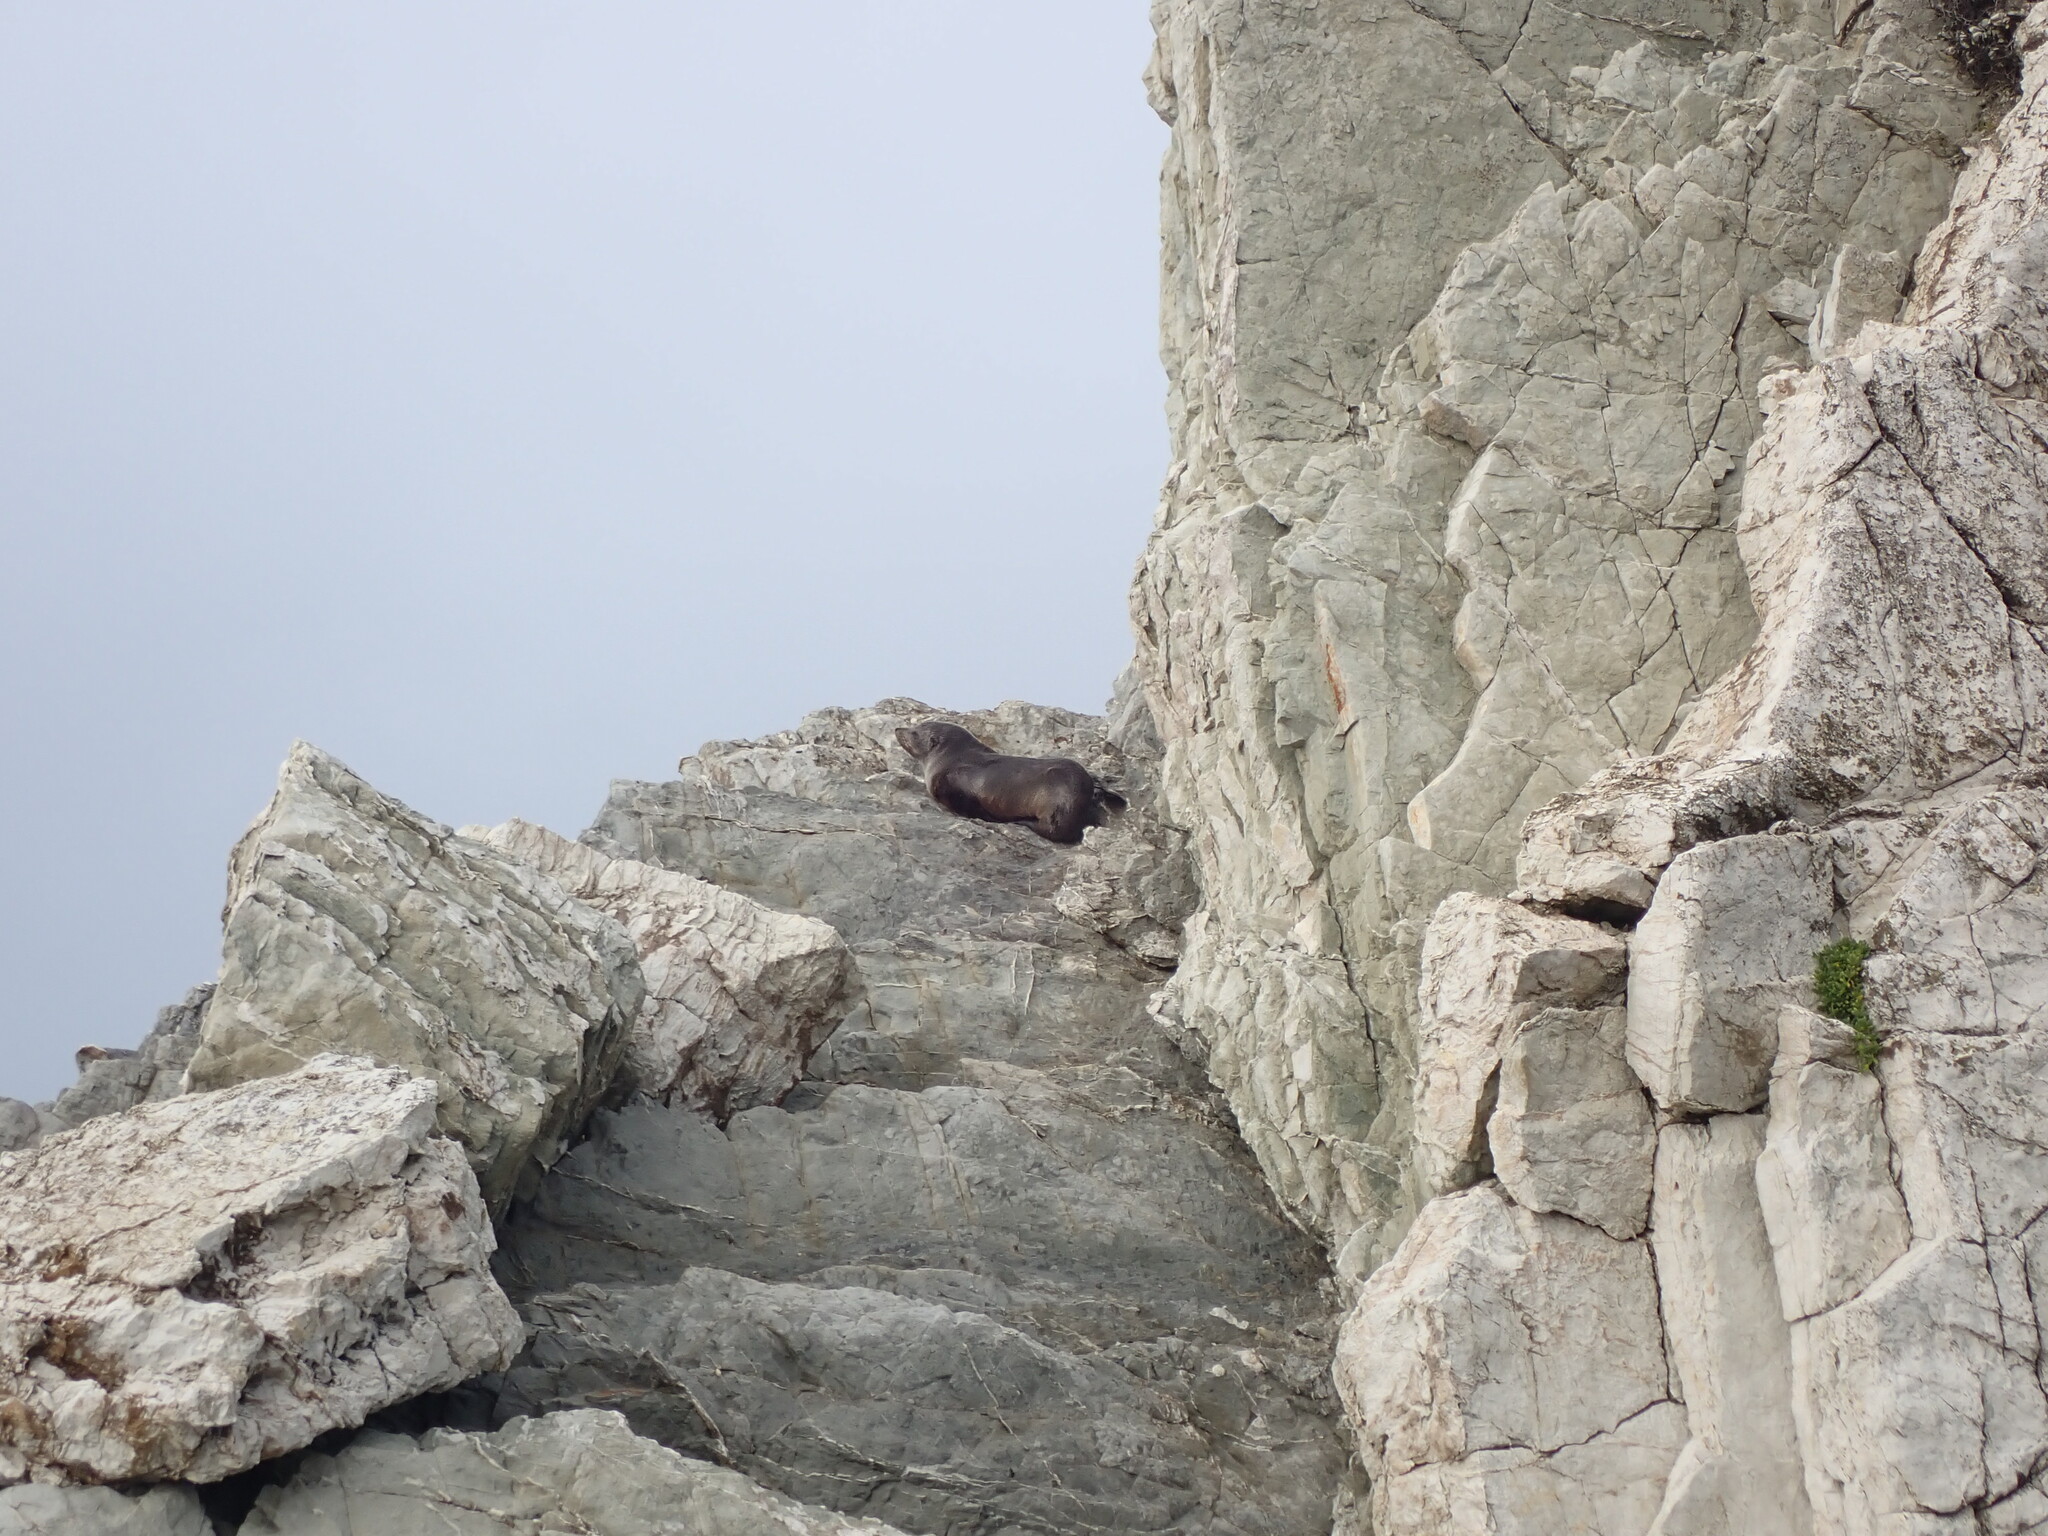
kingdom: Animalia
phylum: Chordata
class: Mammalia
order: Carnivora
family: Otariidae
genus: Arctocephalus
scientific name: Arctocephalus forsteri
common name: New zealand fur seal
